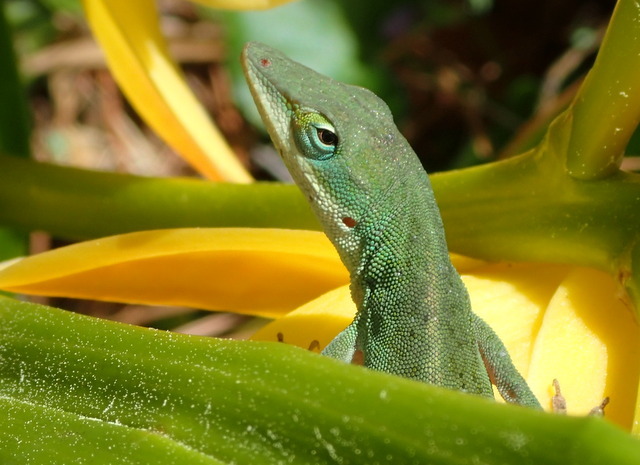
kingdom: Animalia
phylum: Chordata
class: Squamata
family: Dactyloidae
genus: Anolis
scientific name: Anolis carolinensis
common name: Green anole
